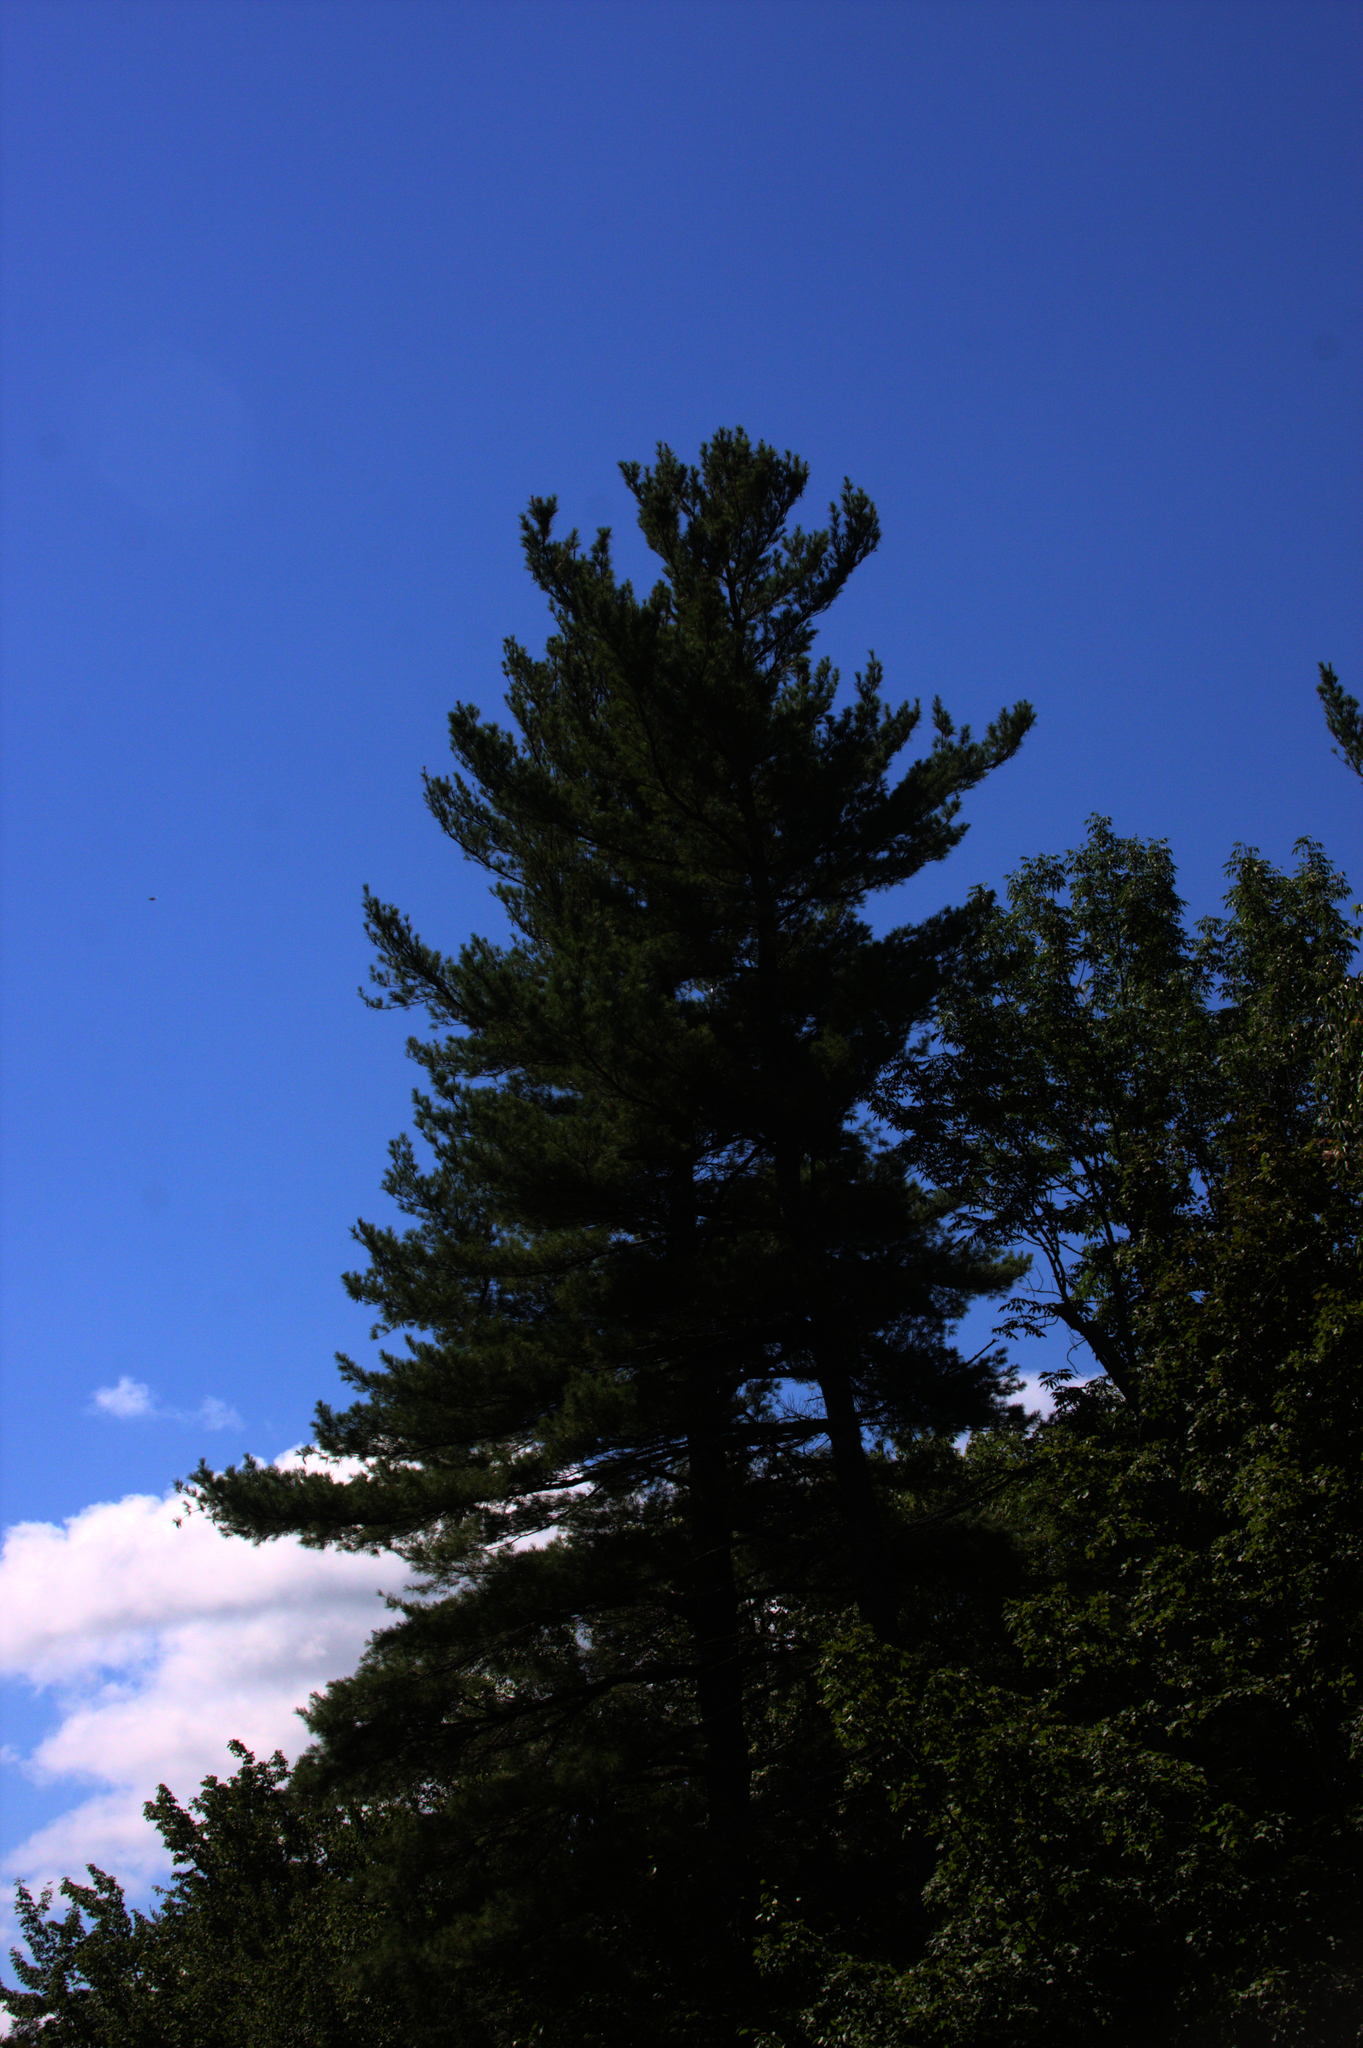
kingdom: Plantae
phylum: Tracheophyta
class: Pinopsida
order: Pinales
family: Pinaceae
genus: Pinus
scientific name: Pinus strobus
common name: Weymouth pine
